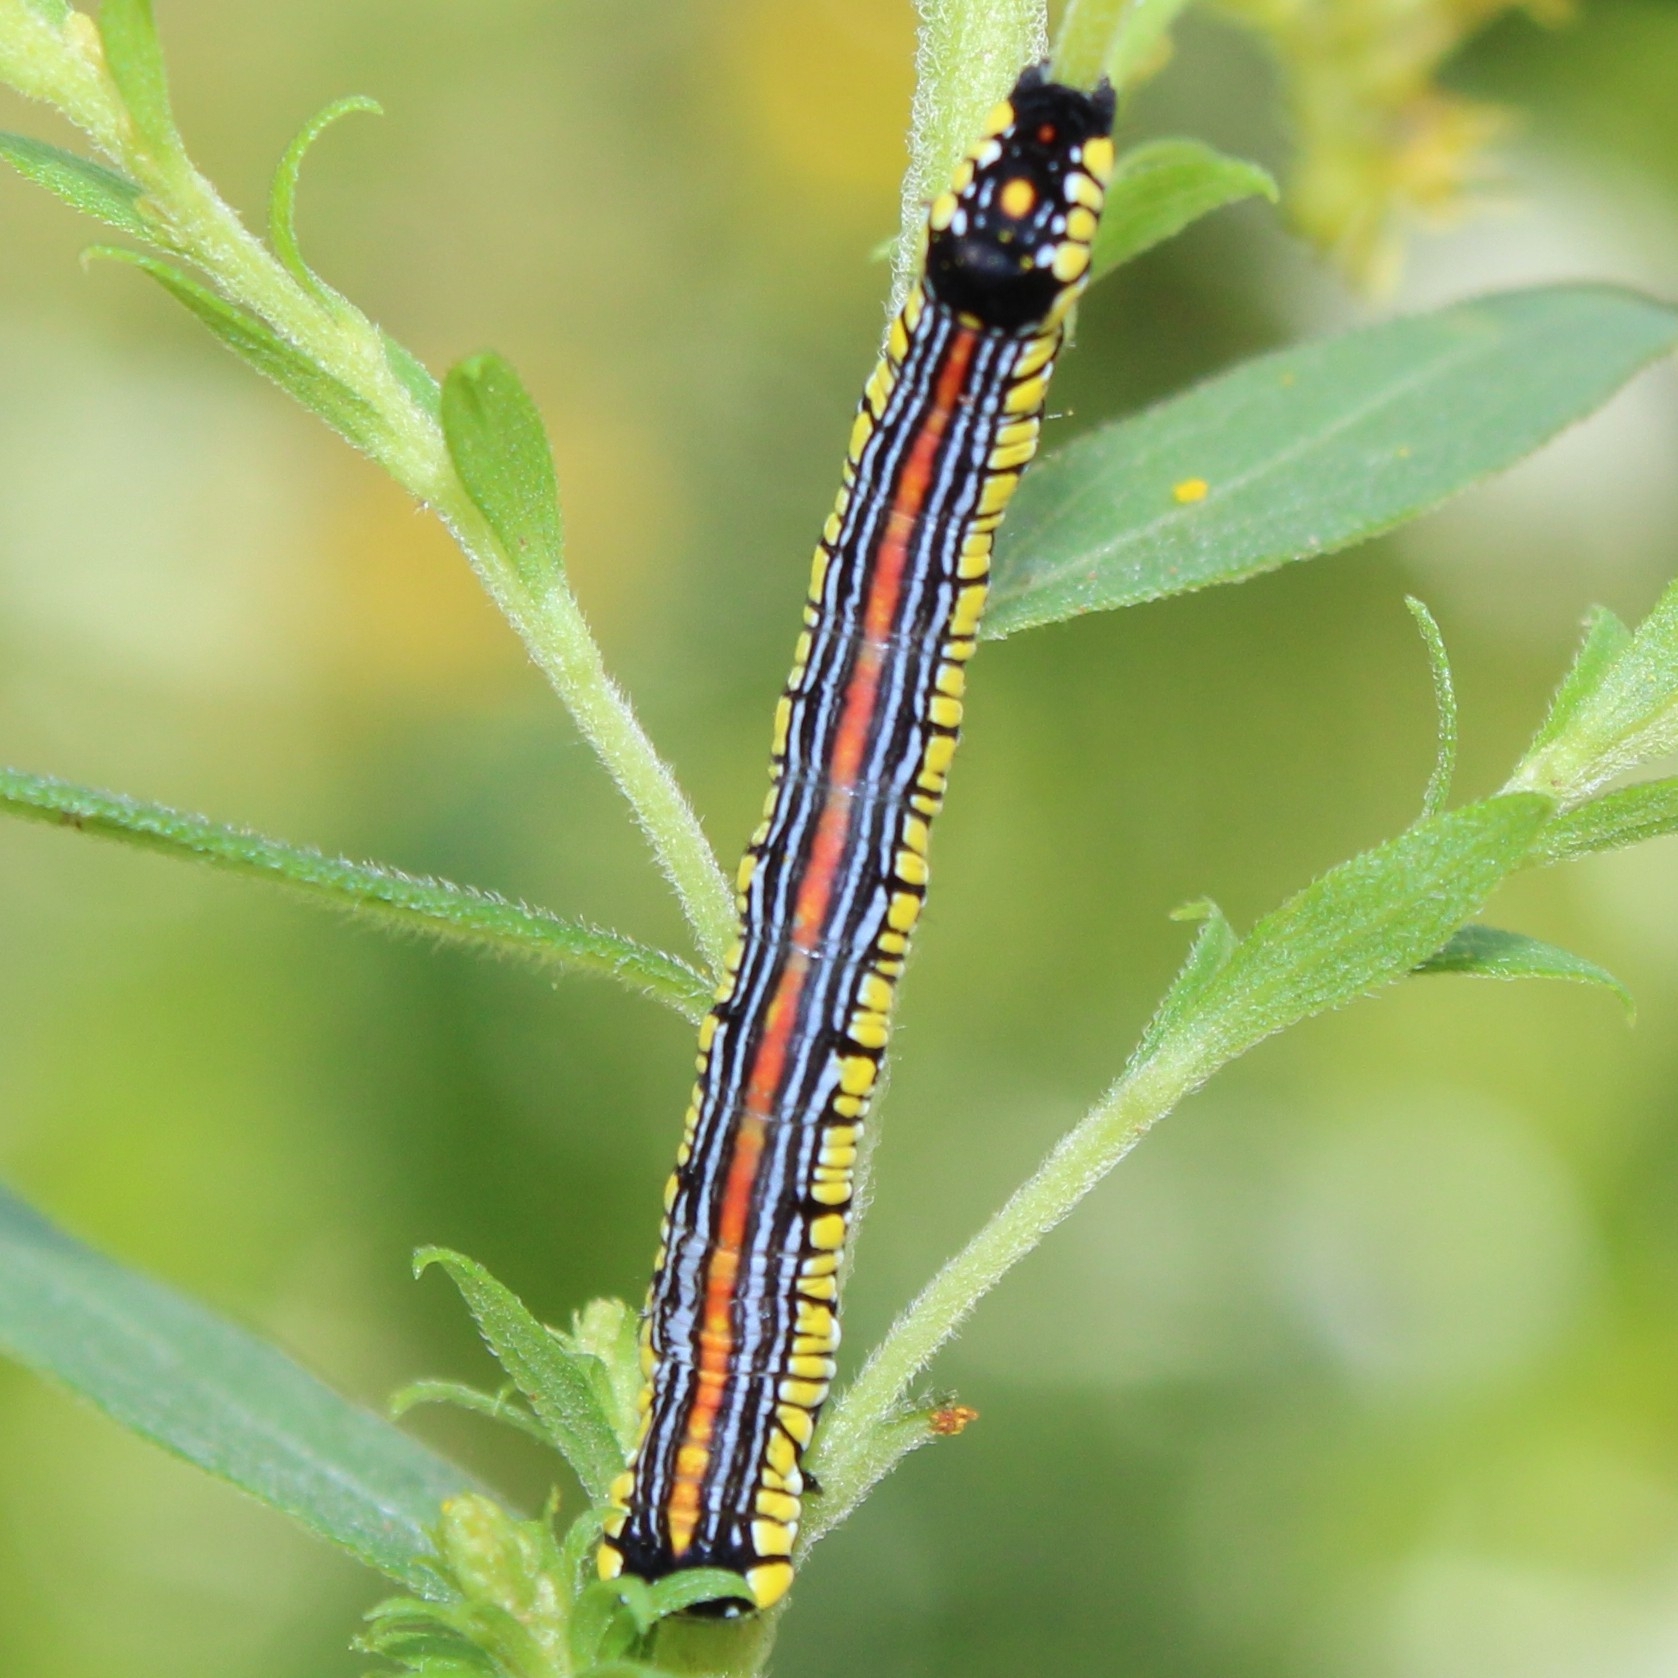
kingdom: Animalia
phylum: Arthropoda
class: Insecta
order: Lepidoptera
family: Noctuidae
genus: Cucullia
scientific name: Cucullia convexipennis
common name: Brown-hooded owlet
